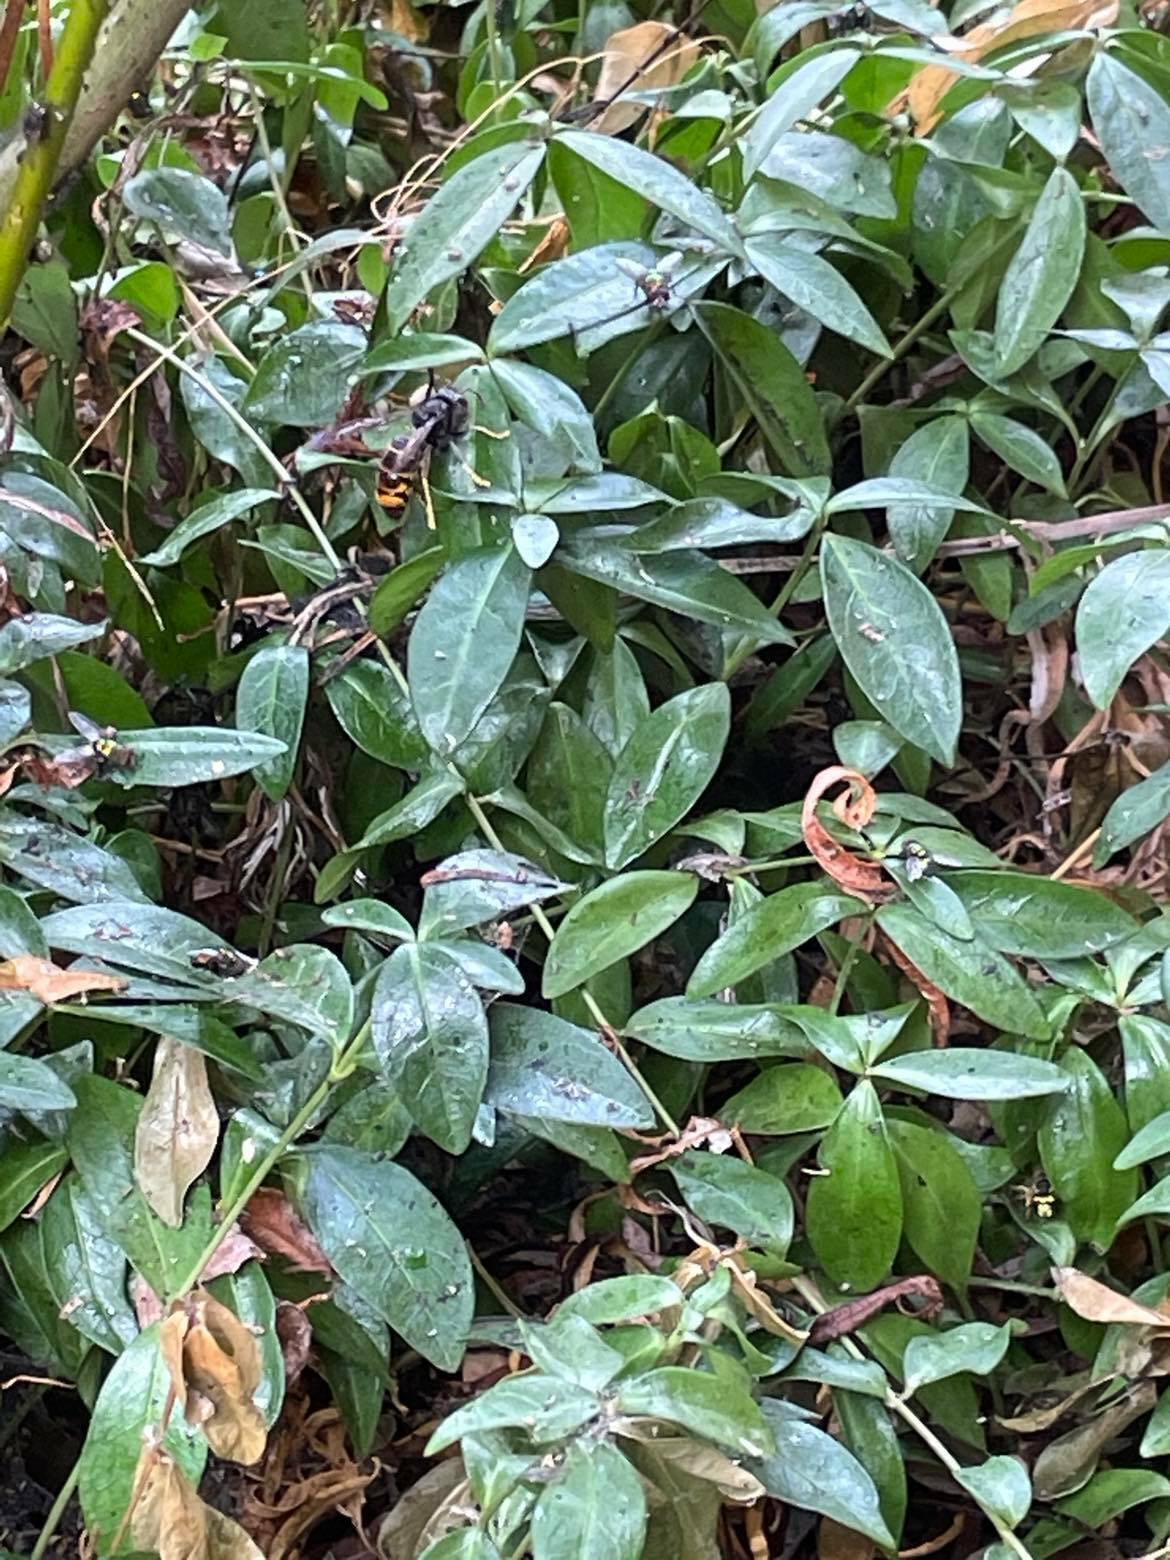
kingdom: Animalia
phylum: Arthropoda
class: Insecta
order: Hymenoptera
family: Vespidae
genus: Vespa
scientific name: Vespa velutina
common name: Asian hornet
